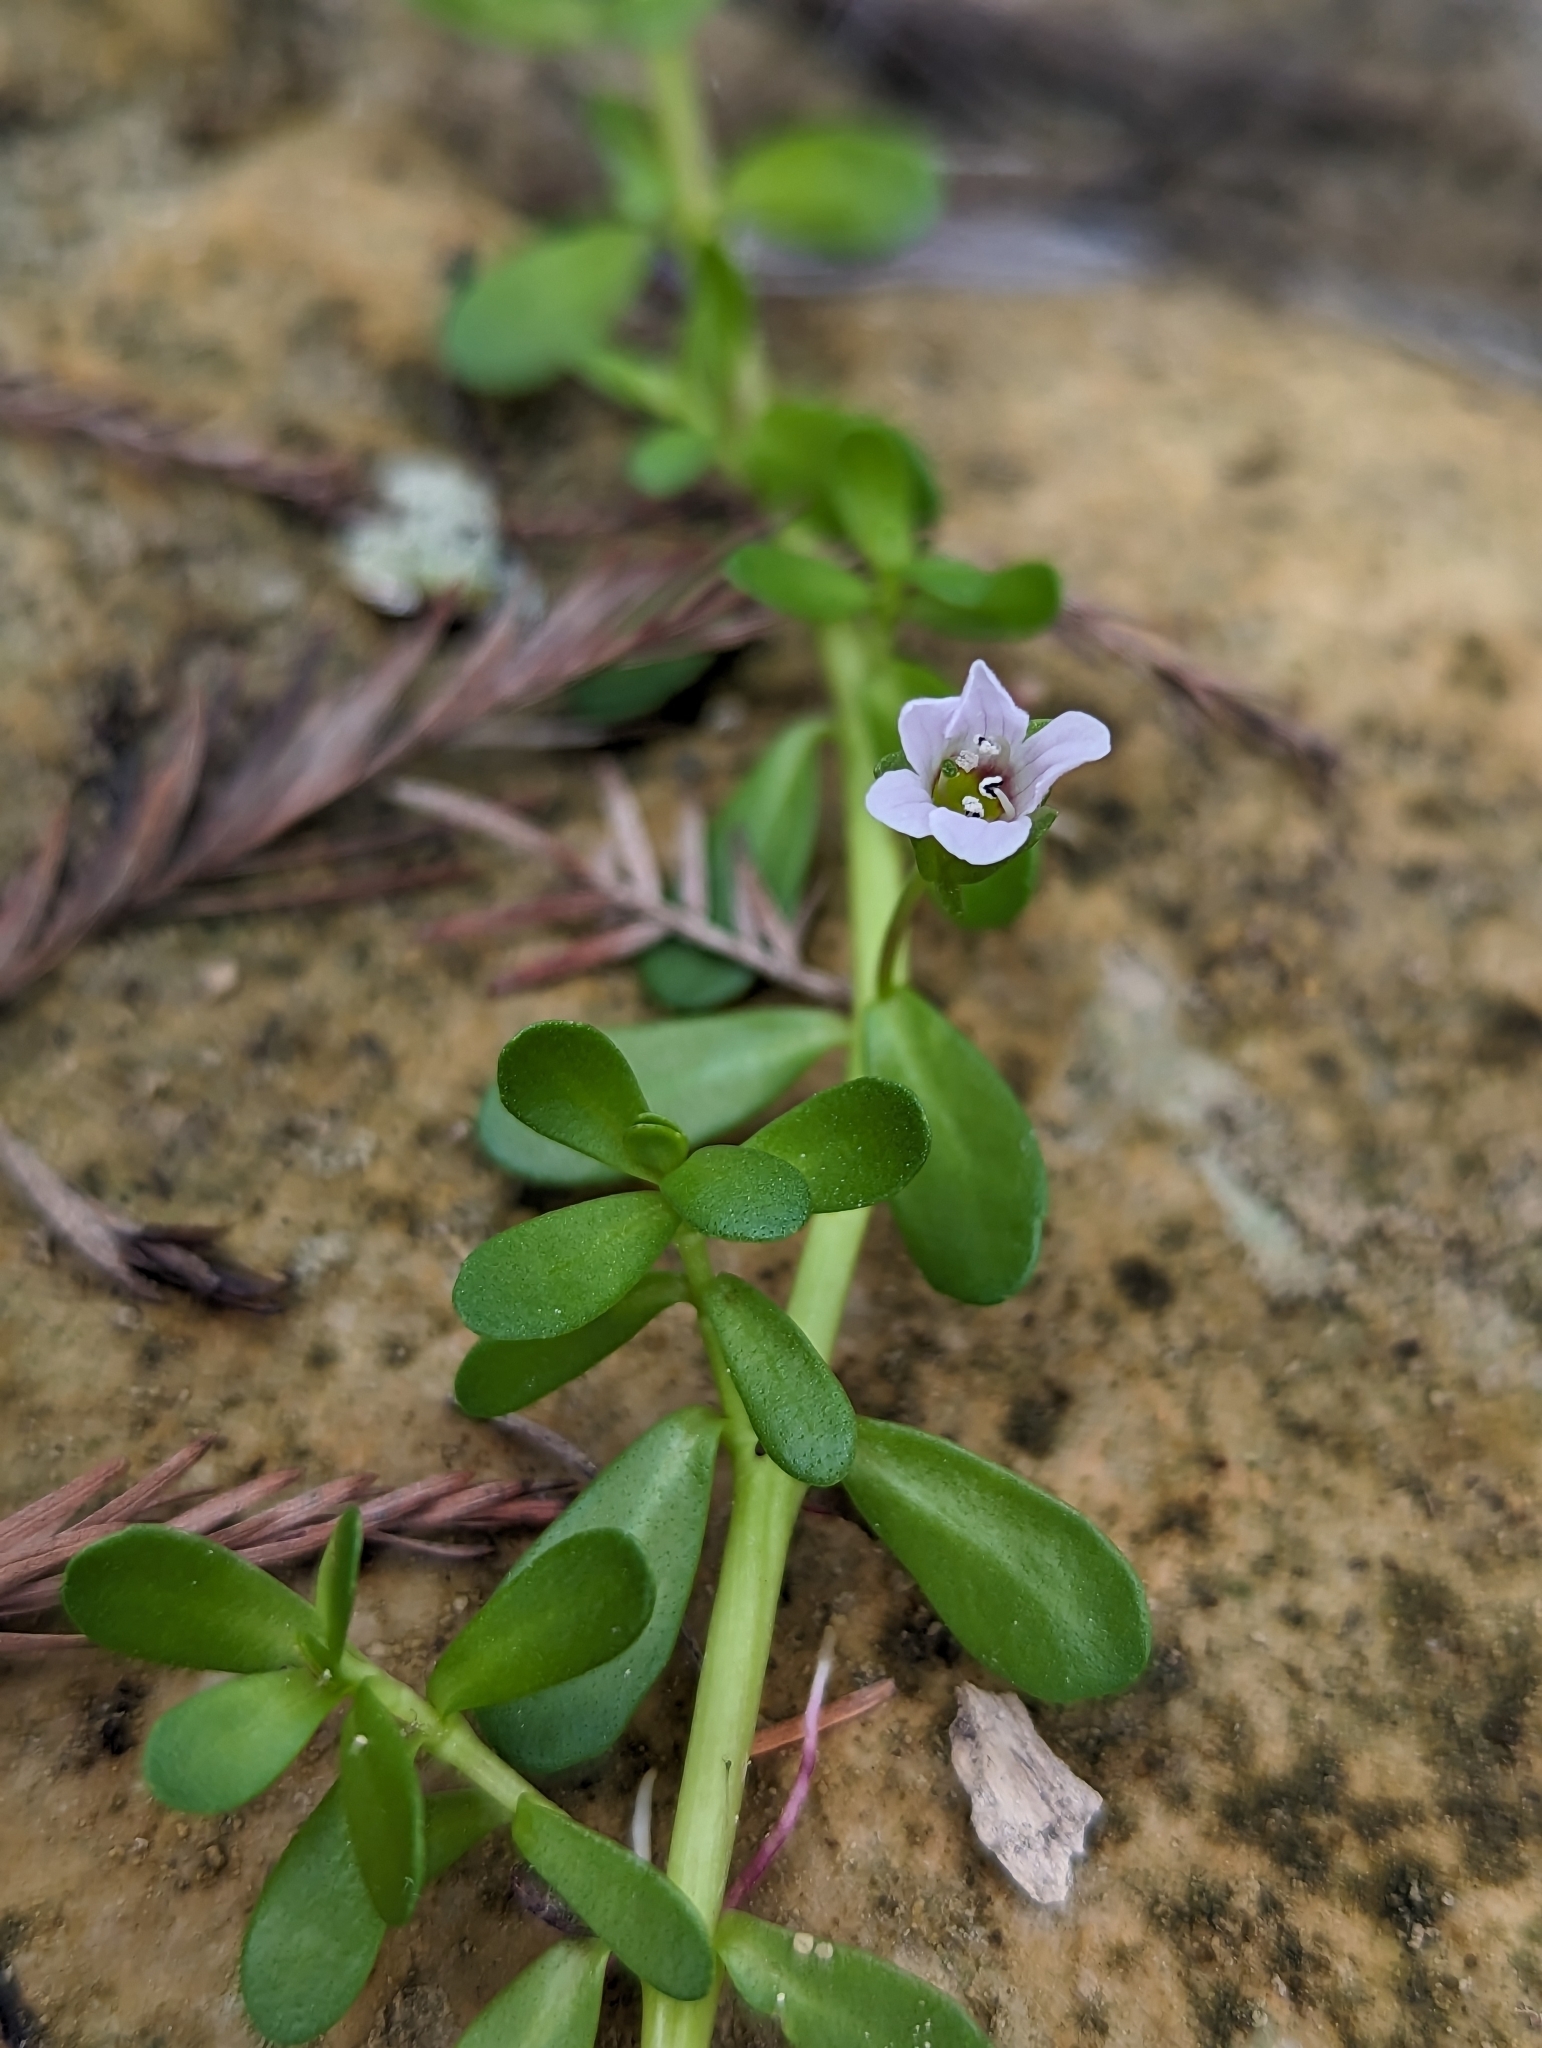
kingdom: Plantae
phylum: Tracheophyta
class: Magnoliopsida
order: Lamiales
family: Plantaginaceae
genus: Bacopa
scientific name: Bacopa monnieri
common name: Indian-pennywort
